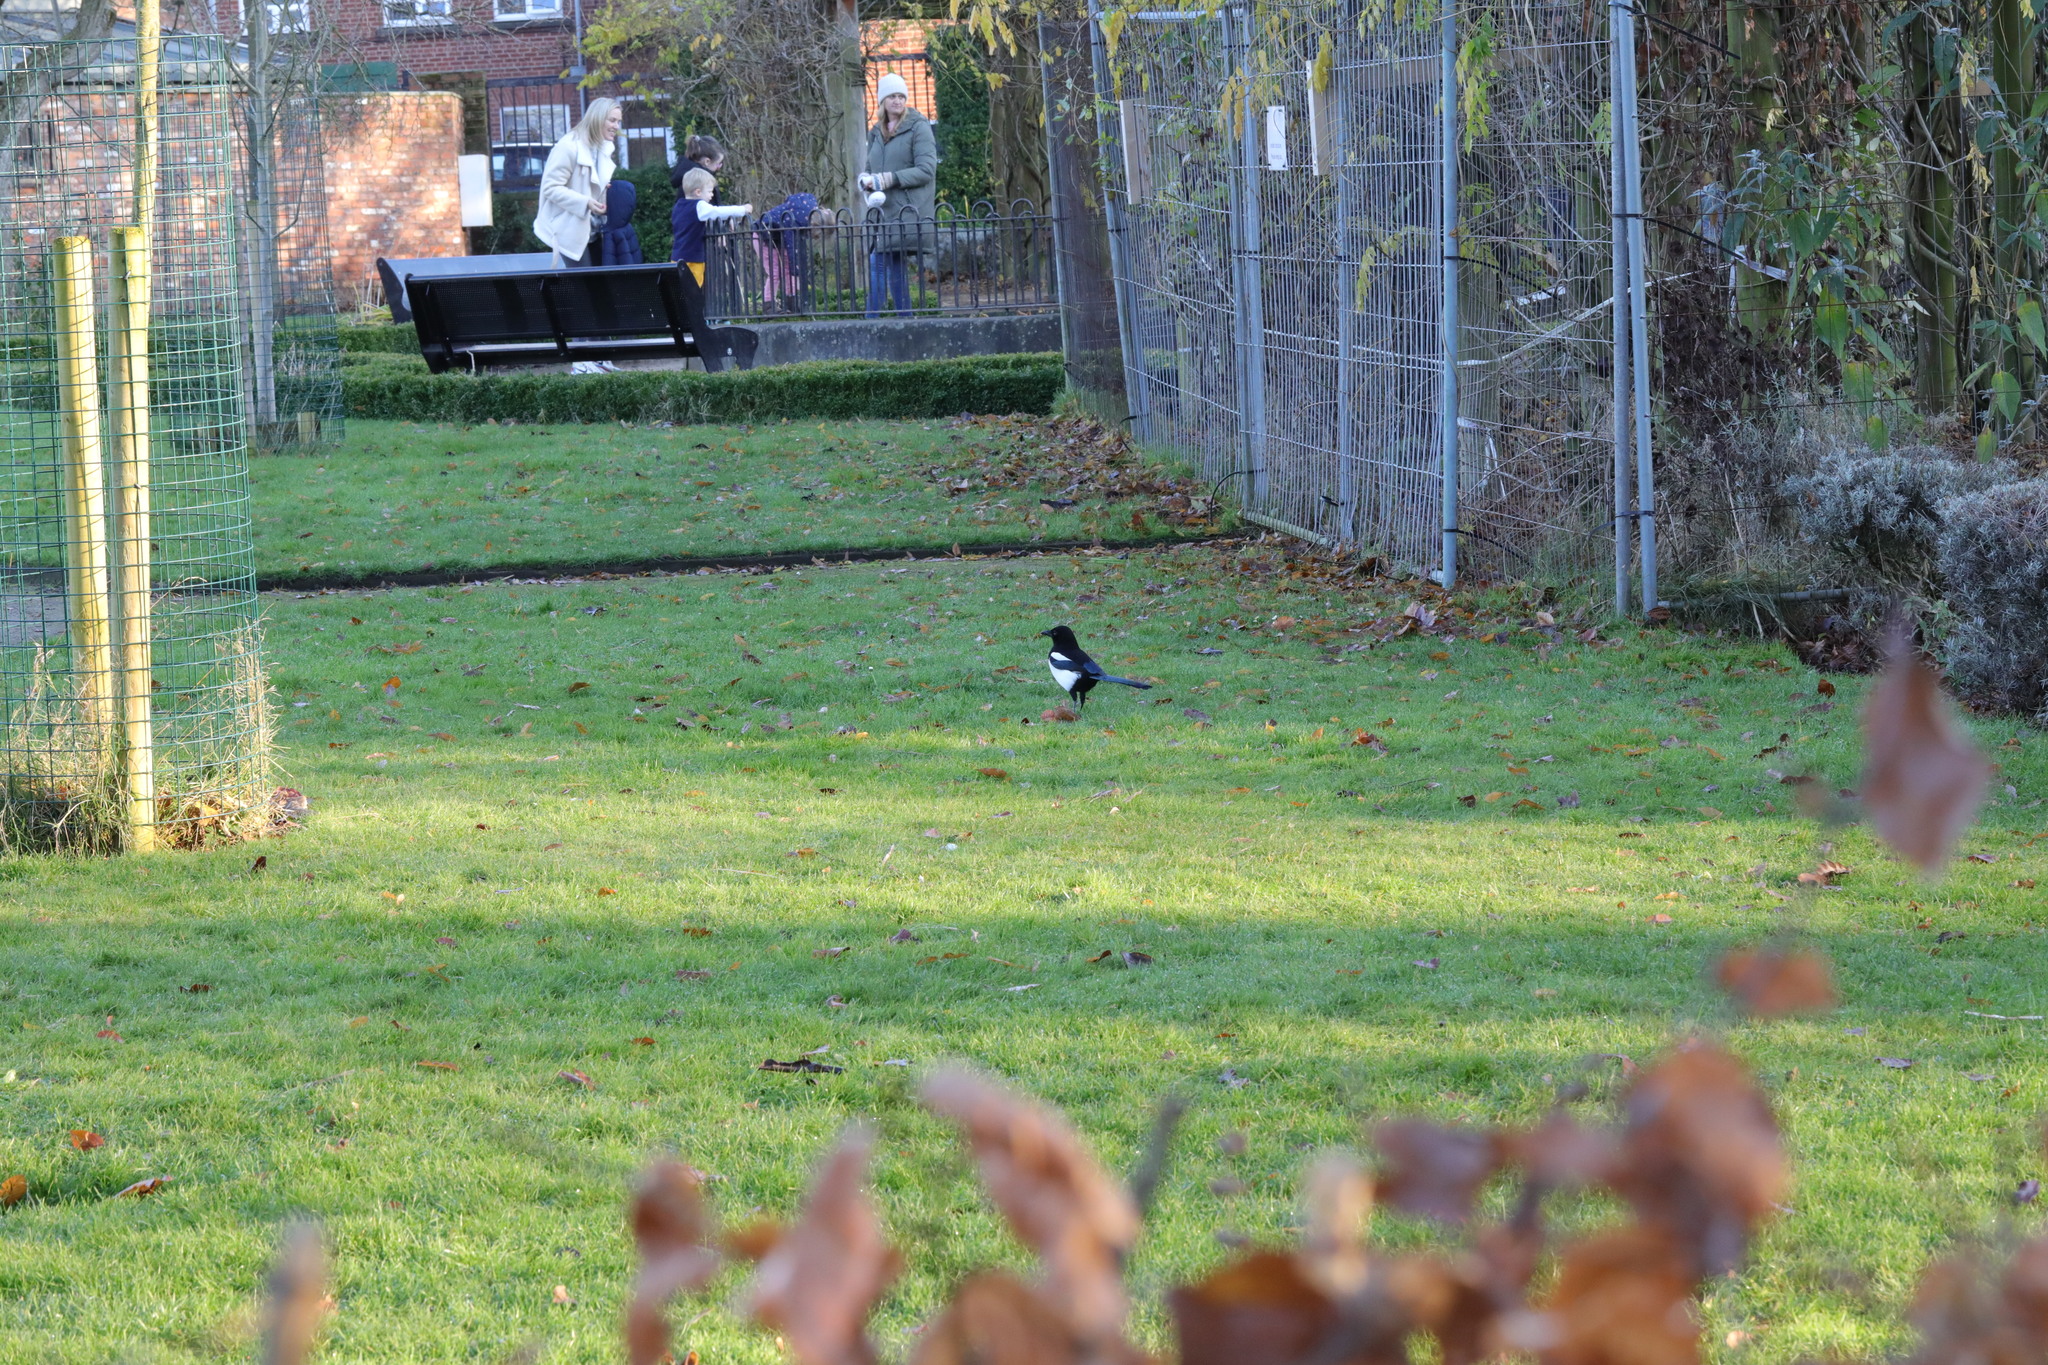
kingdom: Animalia
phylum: Chordata
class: Aves
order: Passeriformes
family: Corvidae
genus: Pica
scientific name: Pica pica
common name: Eurasian magpie
